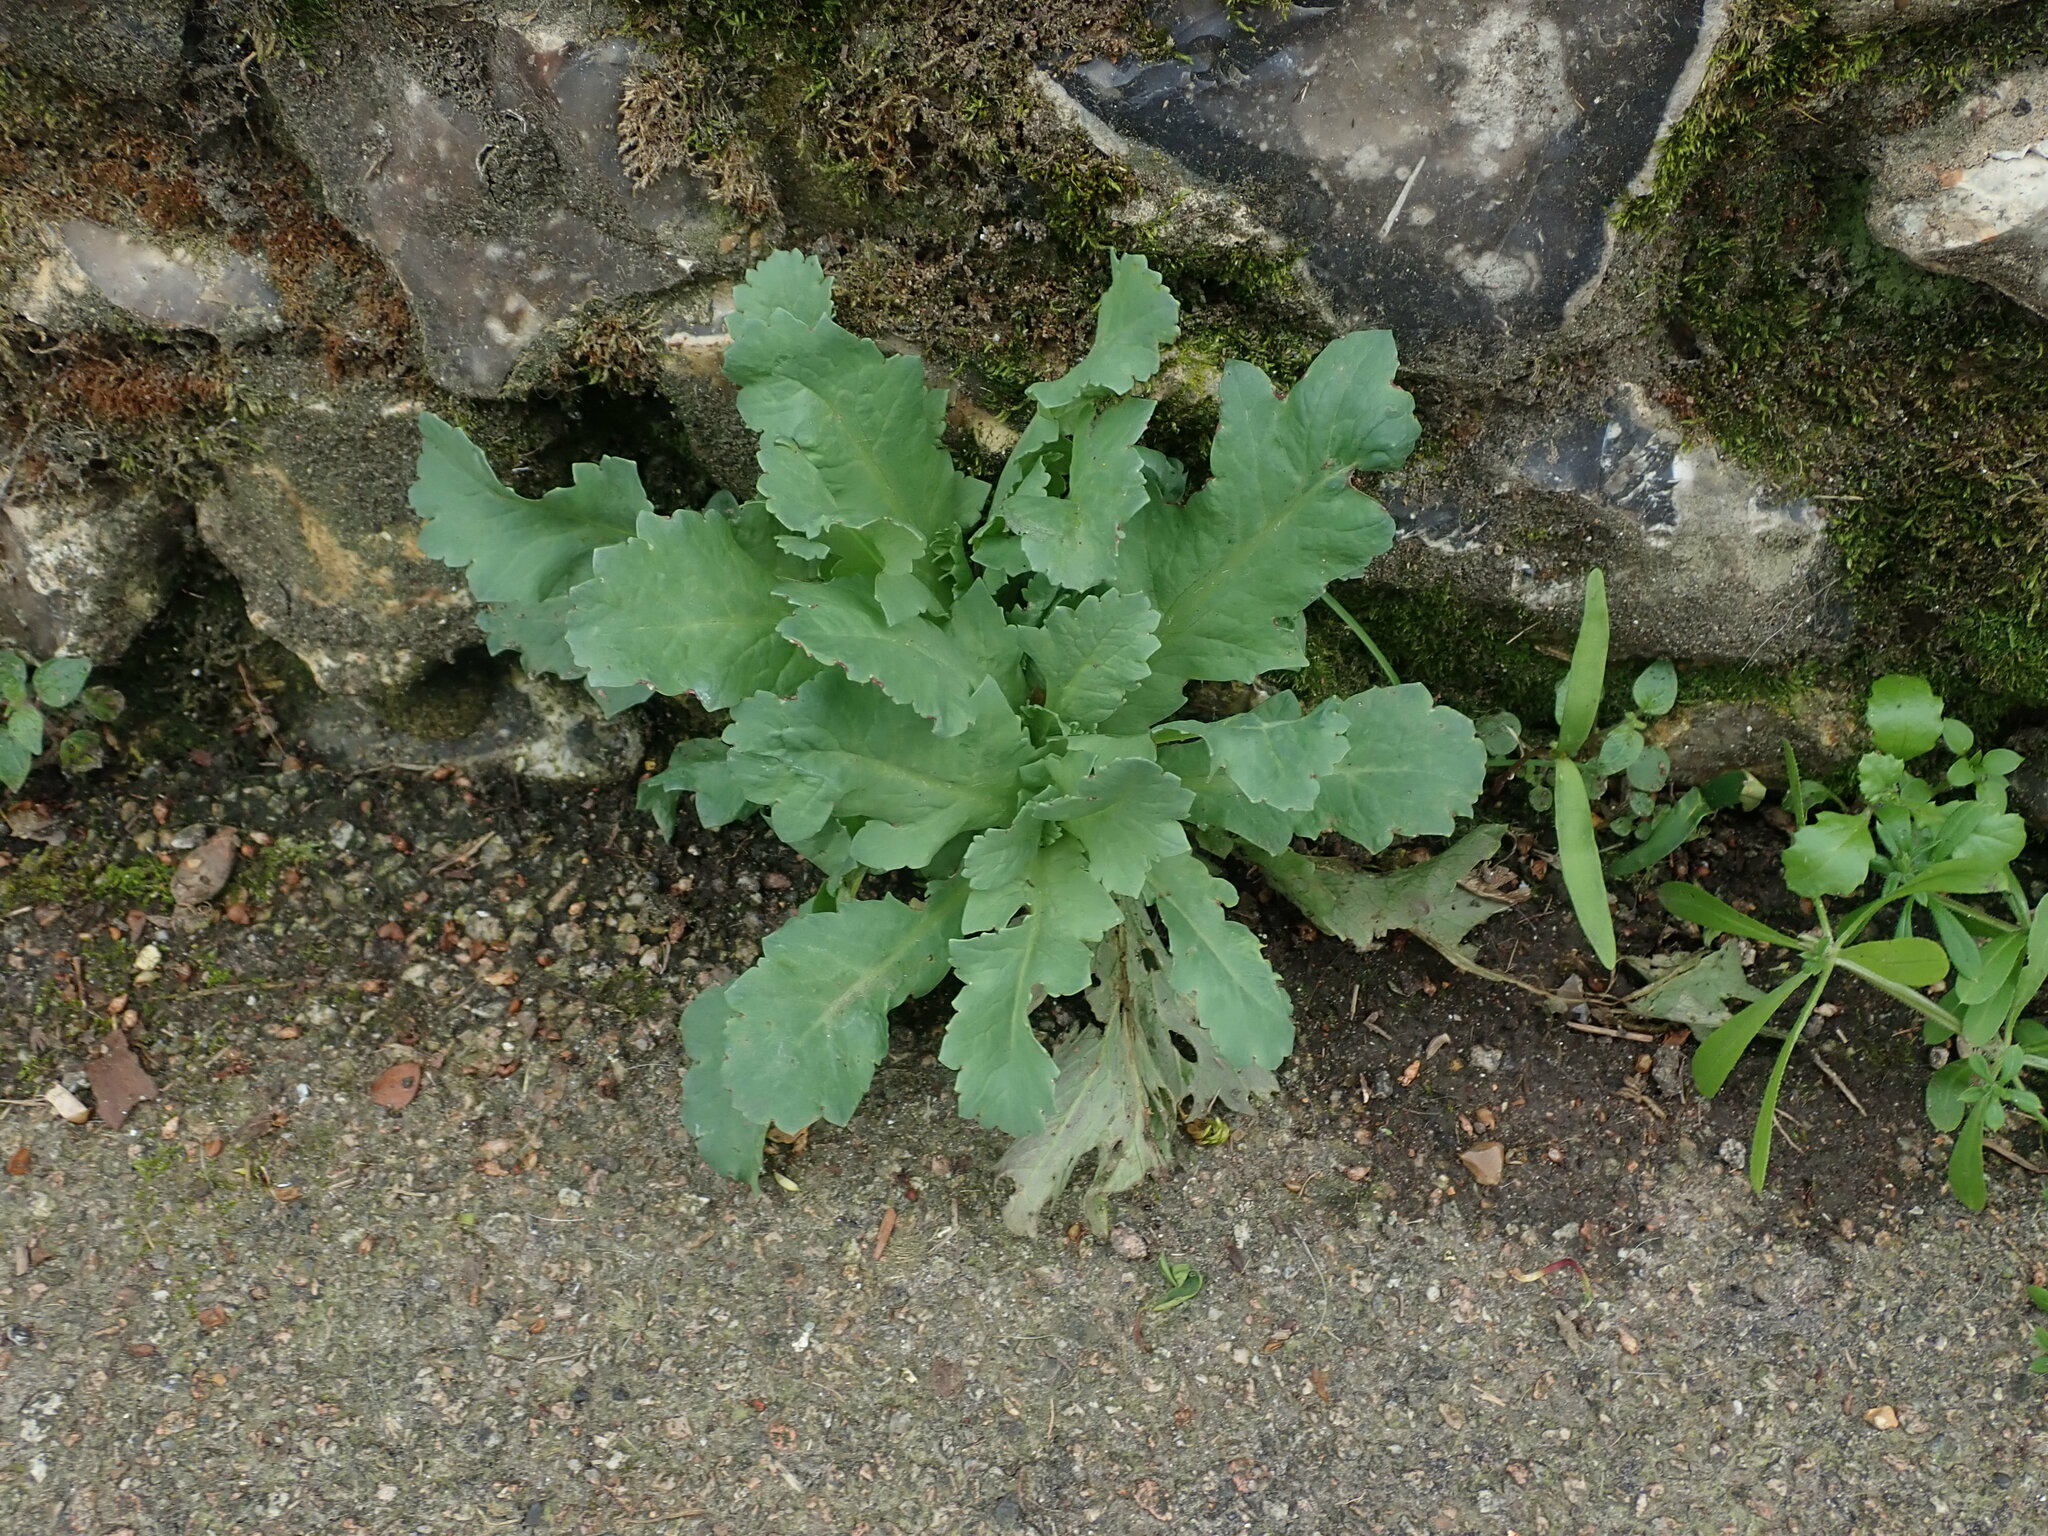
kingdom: Plantae
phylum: Tracheophyta
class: Magnoliopsida
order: Ranunculales
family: Papaveraceae
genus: Papaver
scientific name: Papaver somniferum
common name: Opium poppy
